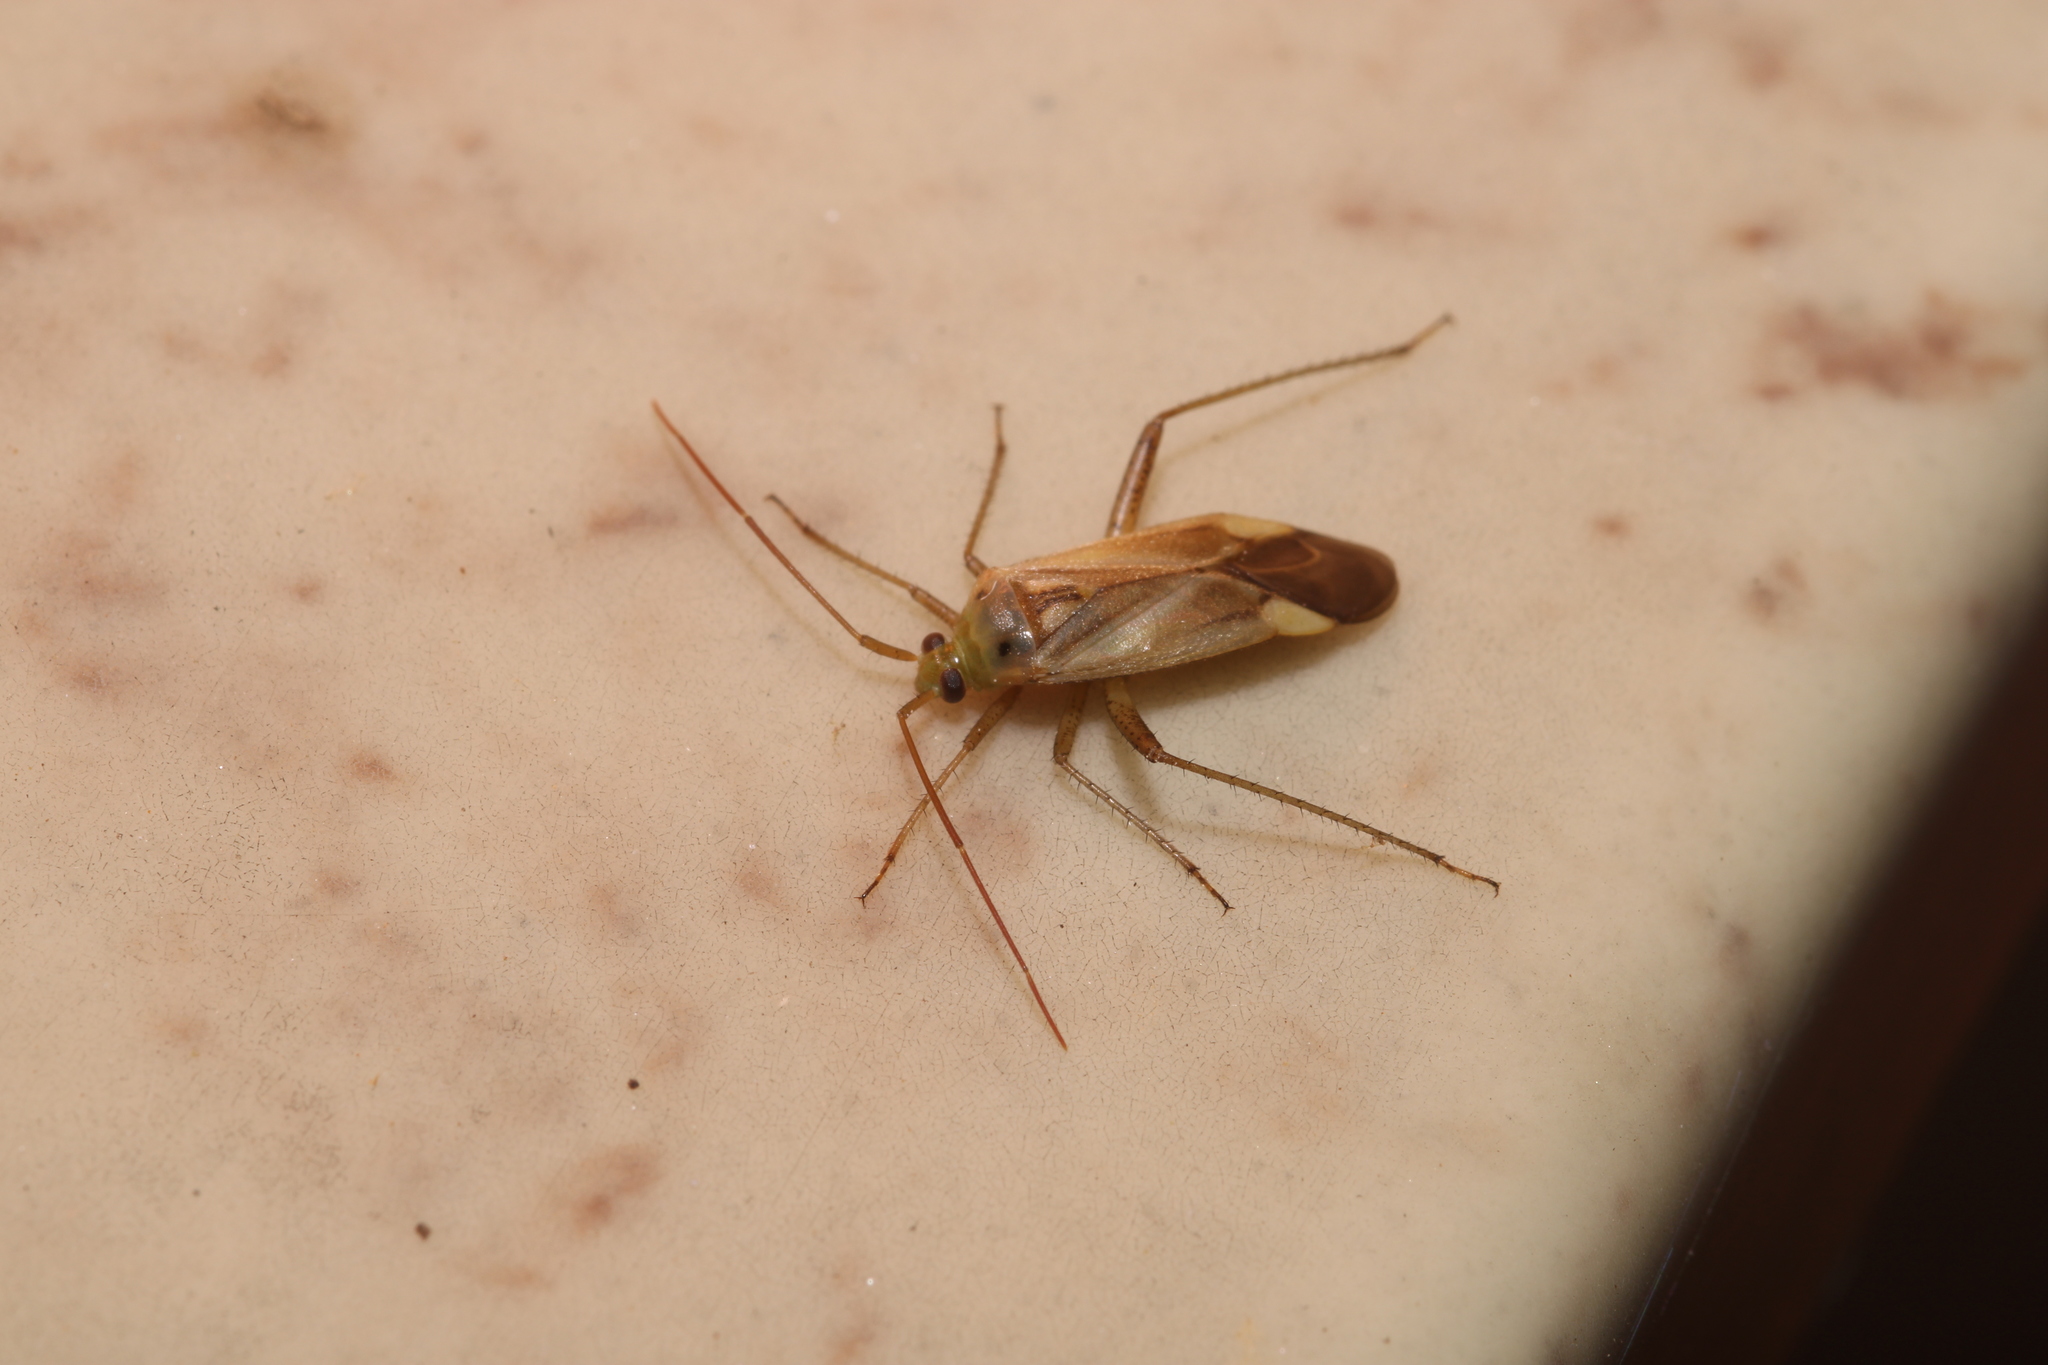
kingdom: Animalia
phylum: Arthropoda
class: Insecta
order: Hemiptera
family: Miridae
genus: Adelphocoris
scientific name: Adelphocoris lineolatus
